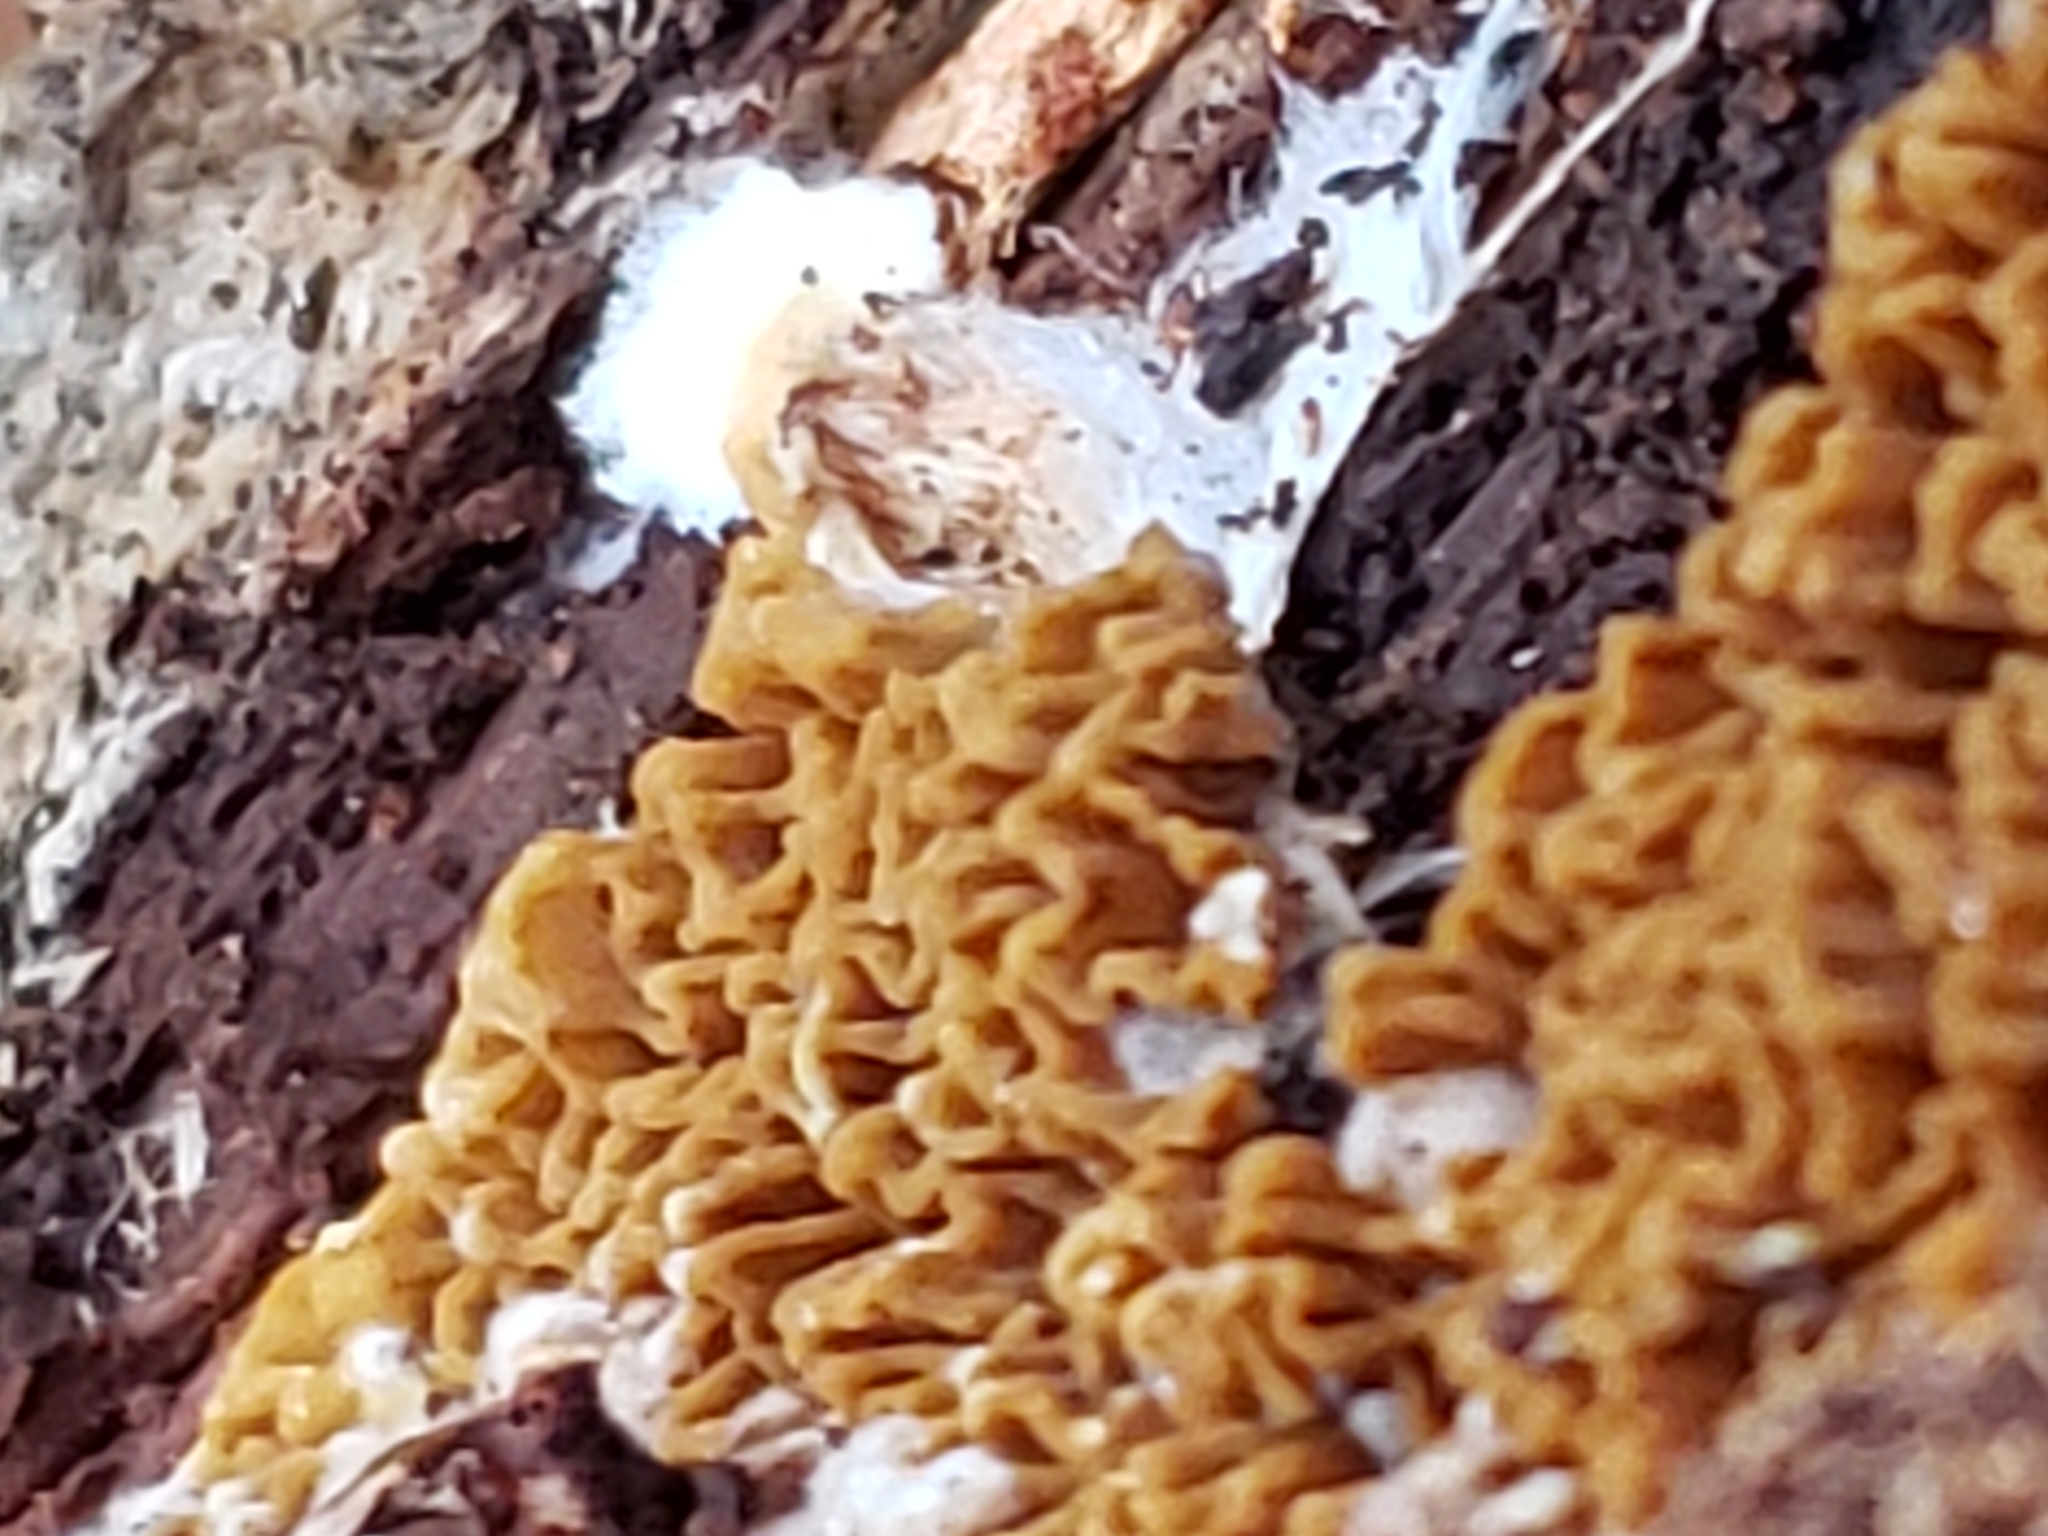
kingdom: Fungi
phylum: Basidiomycota
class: Agaricomycetes
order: Boletales
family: Serpulaceae
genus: Serpula
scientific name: Serpula himantioides
